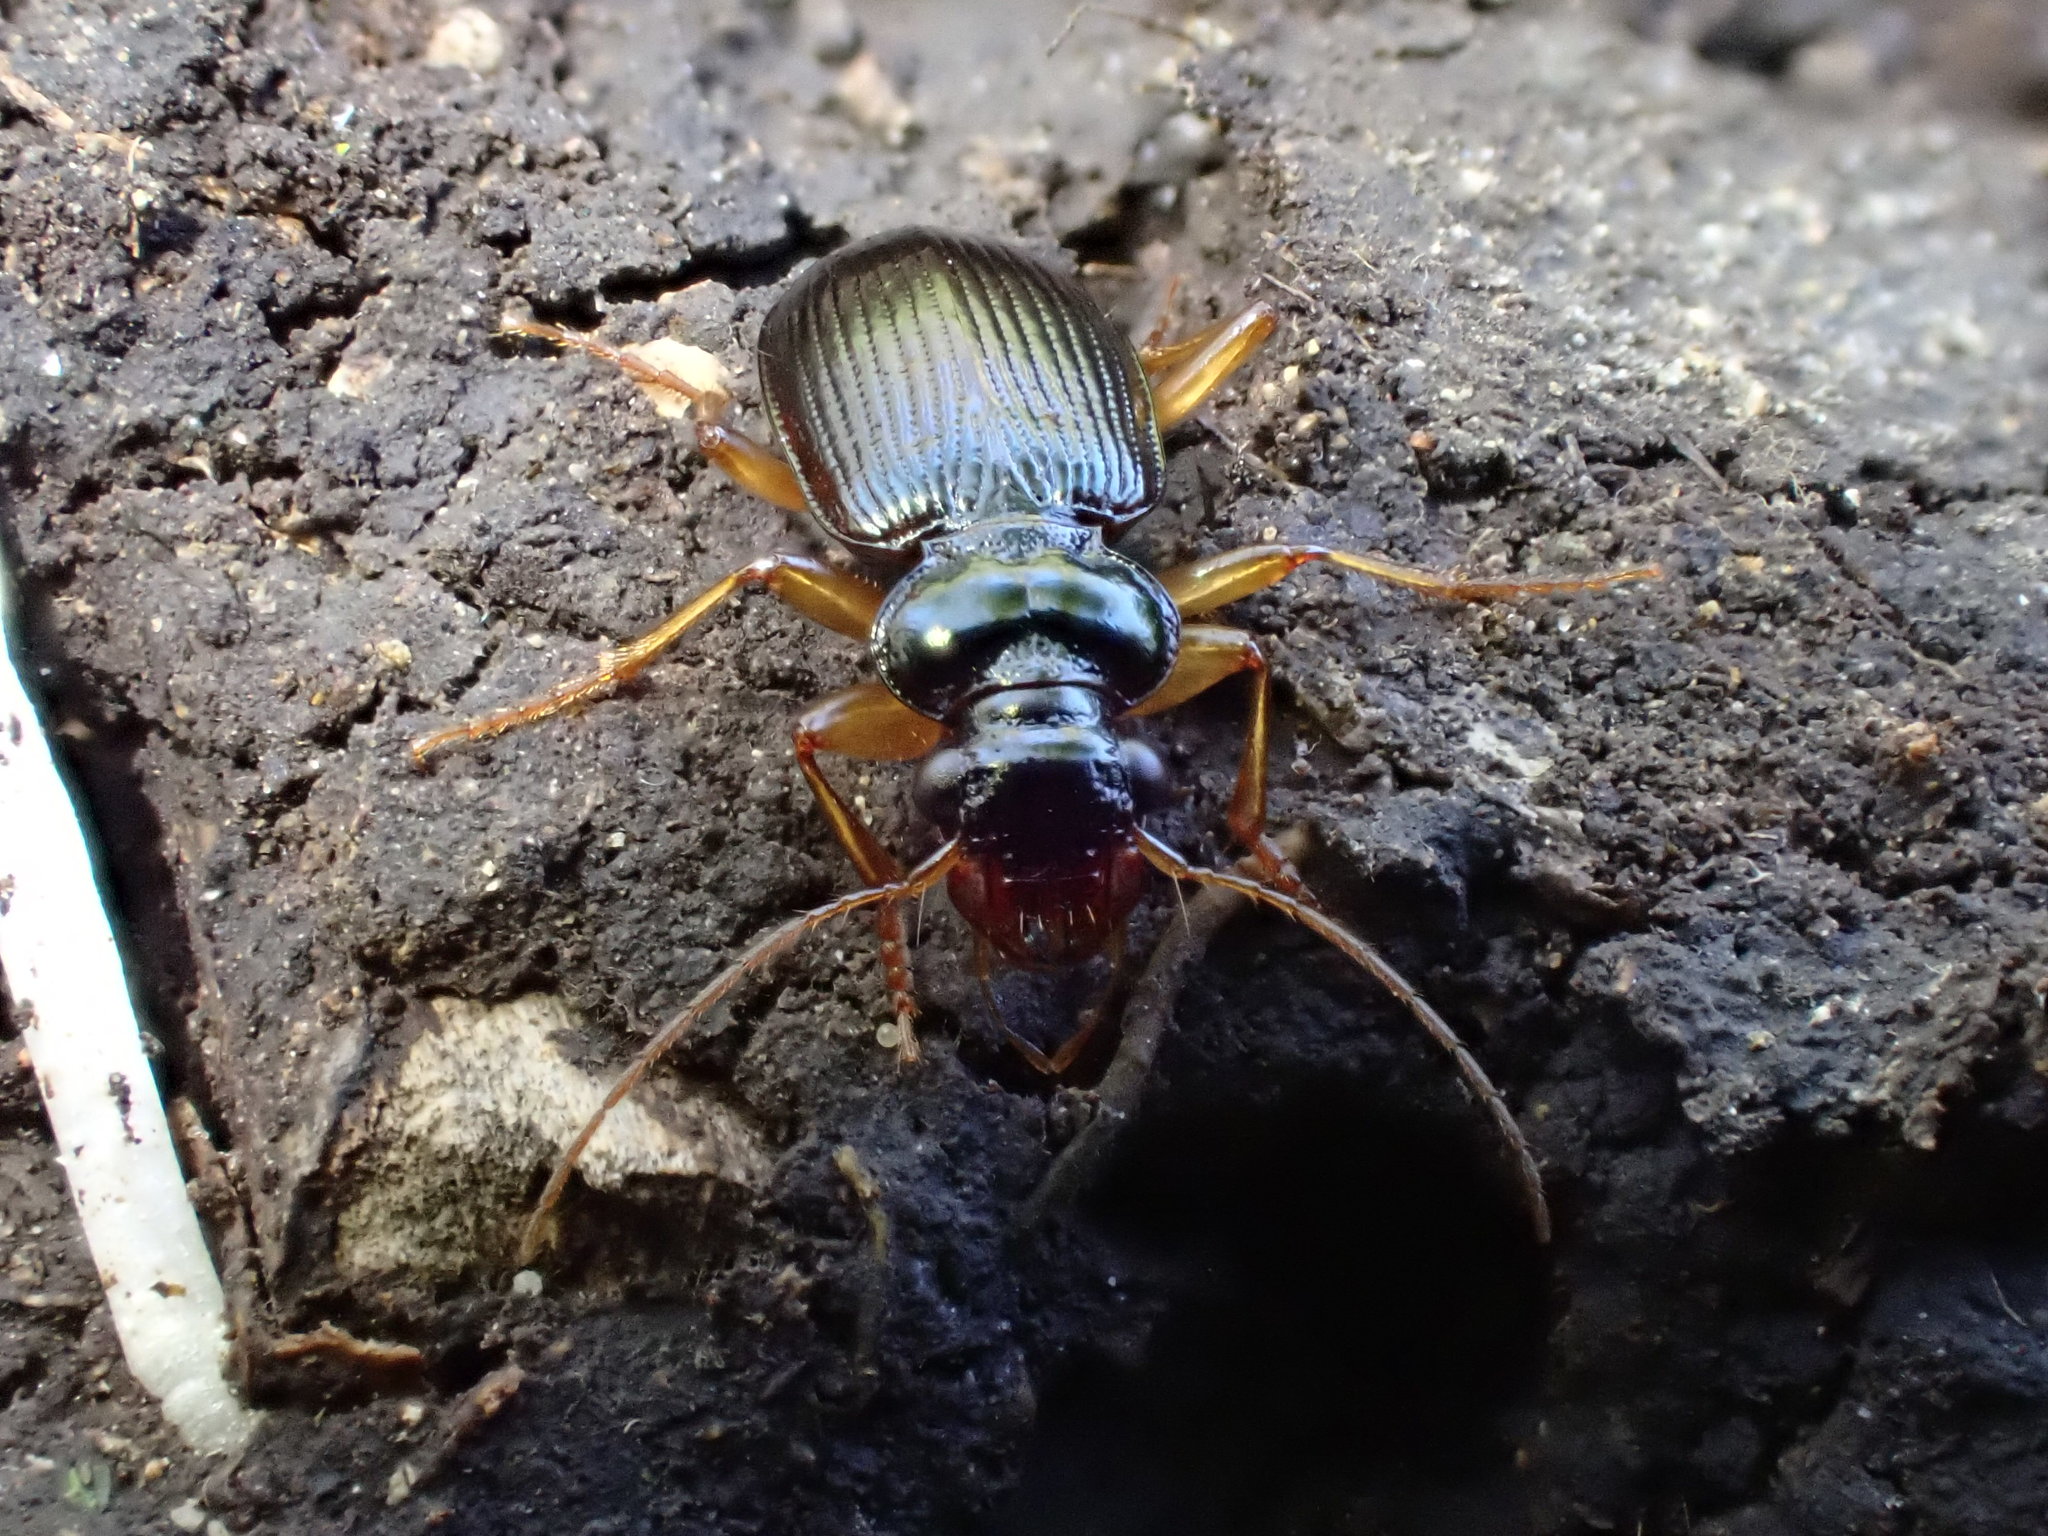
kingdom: Animalia
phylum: Arthropoda
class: Insecta
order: Coleoptera
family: Carabidae
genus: Leistus
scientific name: Leistus fulvibarbis
